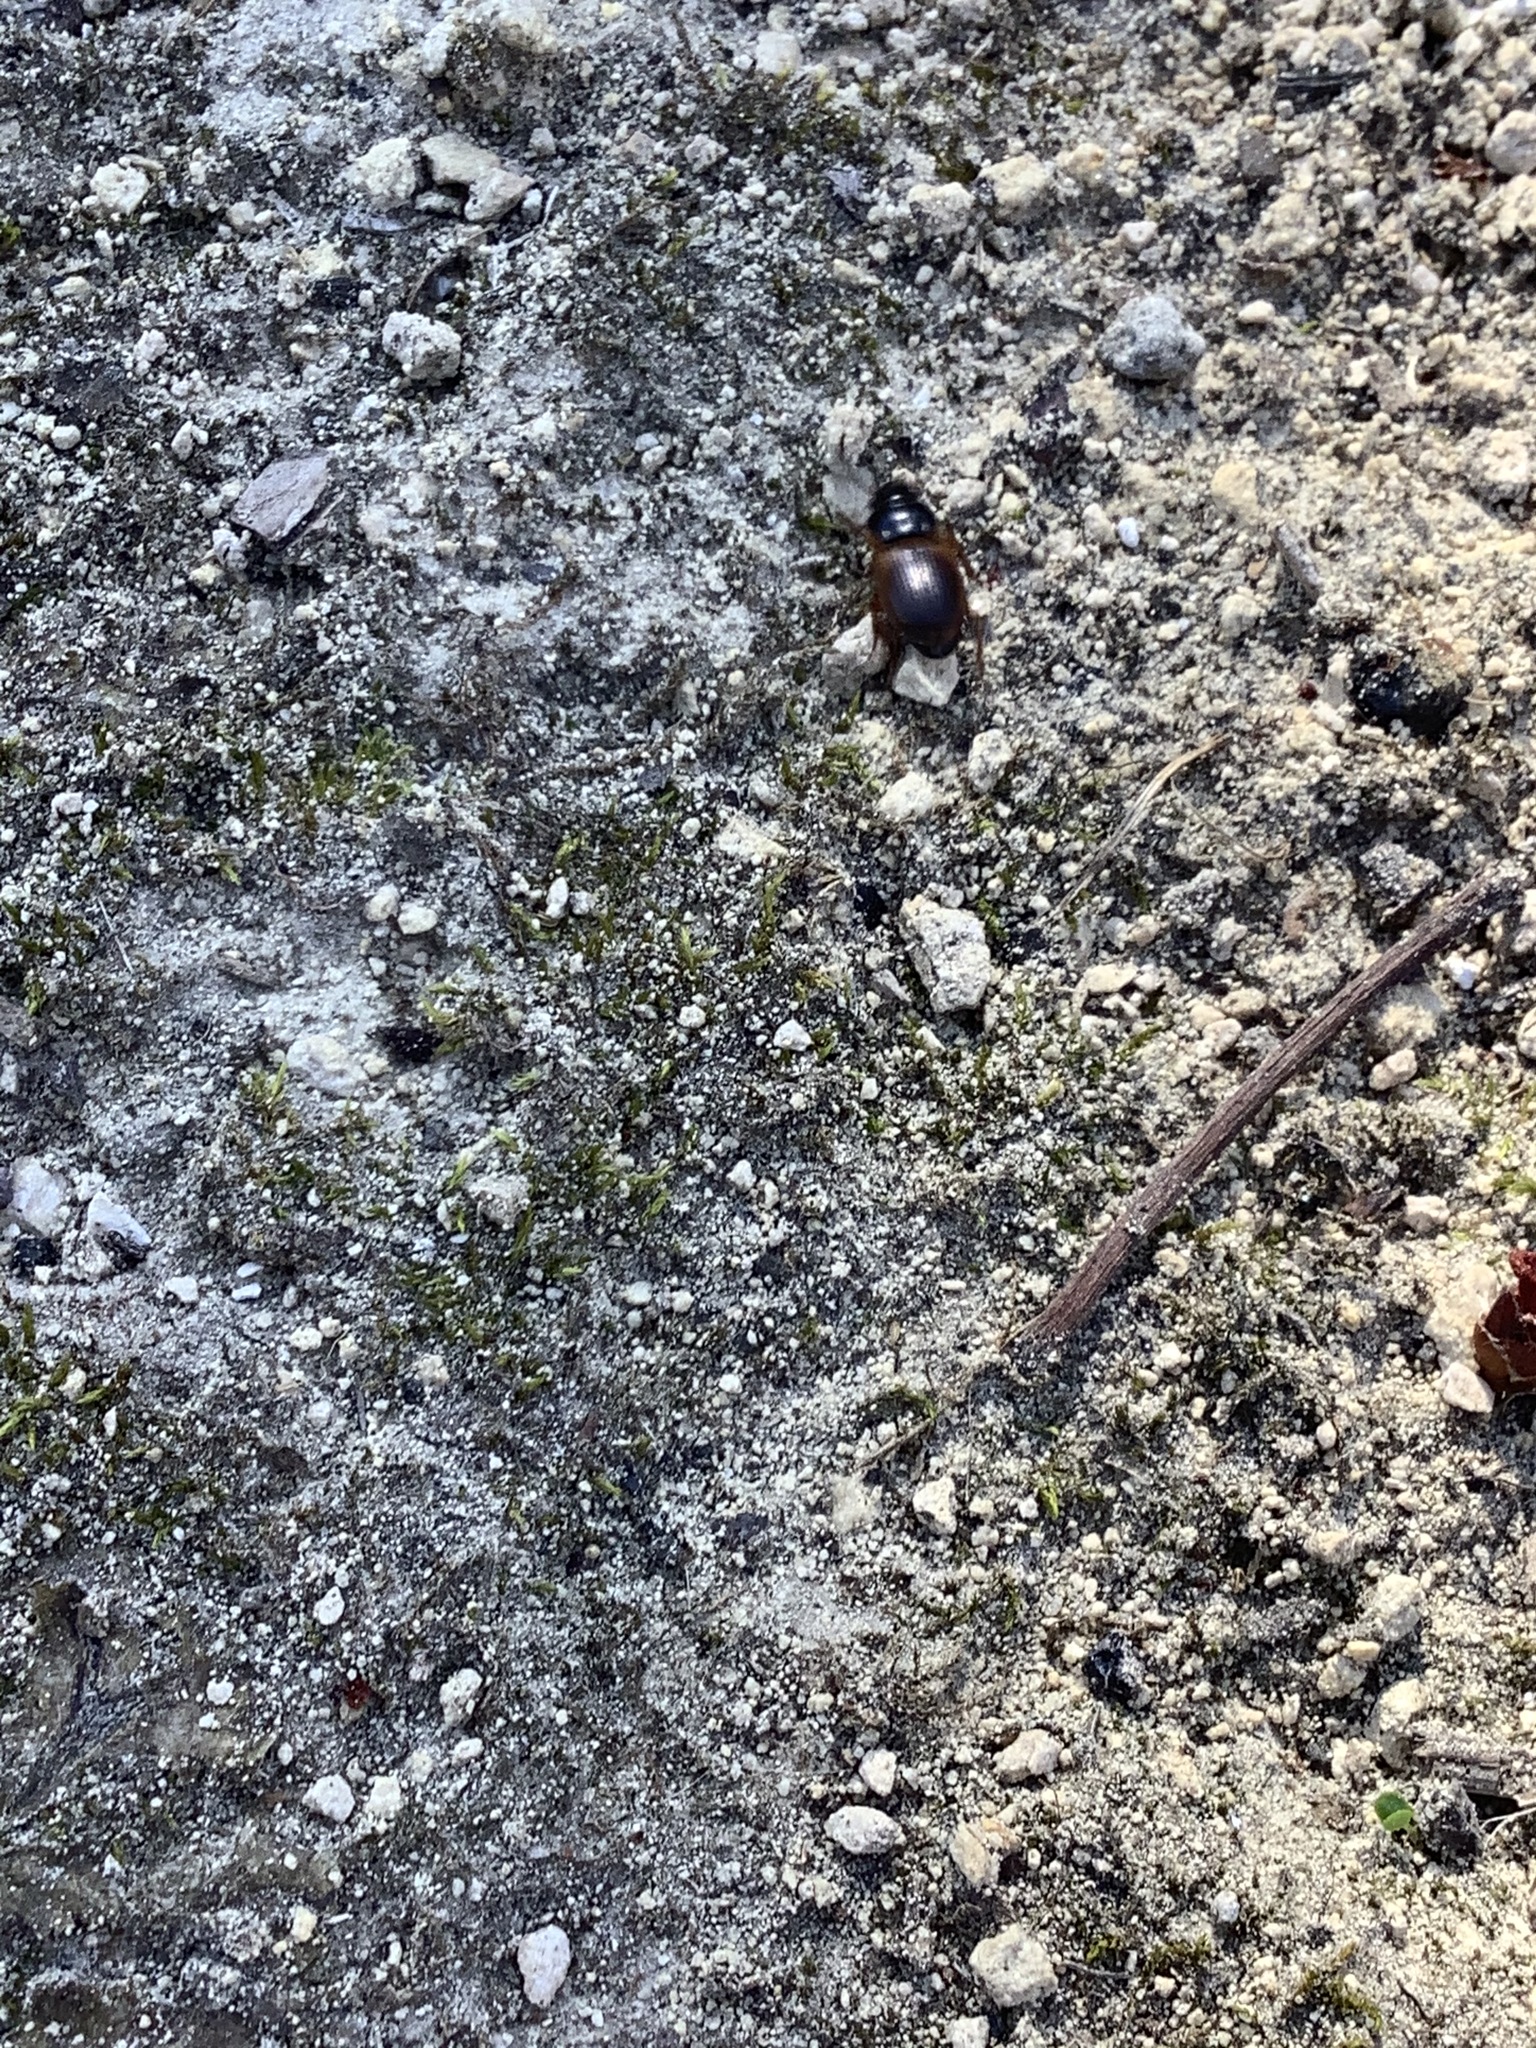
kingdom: Animalia
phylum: Arthropoda
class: Insecta
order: Coleoptera
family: Carabidae
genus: Anisodactylus
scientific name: Anisodactylus sanctaecrucis
